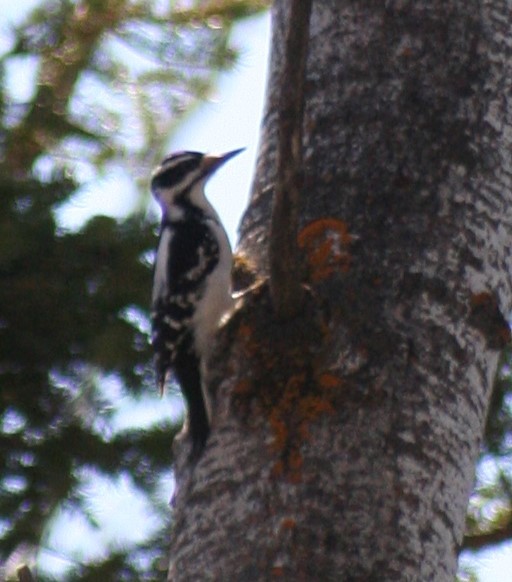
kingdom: Animalia
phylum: Chordata
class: Aves
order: Piciformes
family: Picidae
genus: Leuconotopicus
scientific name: Leuconotopicus villosus
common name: Hairy woodpecker
